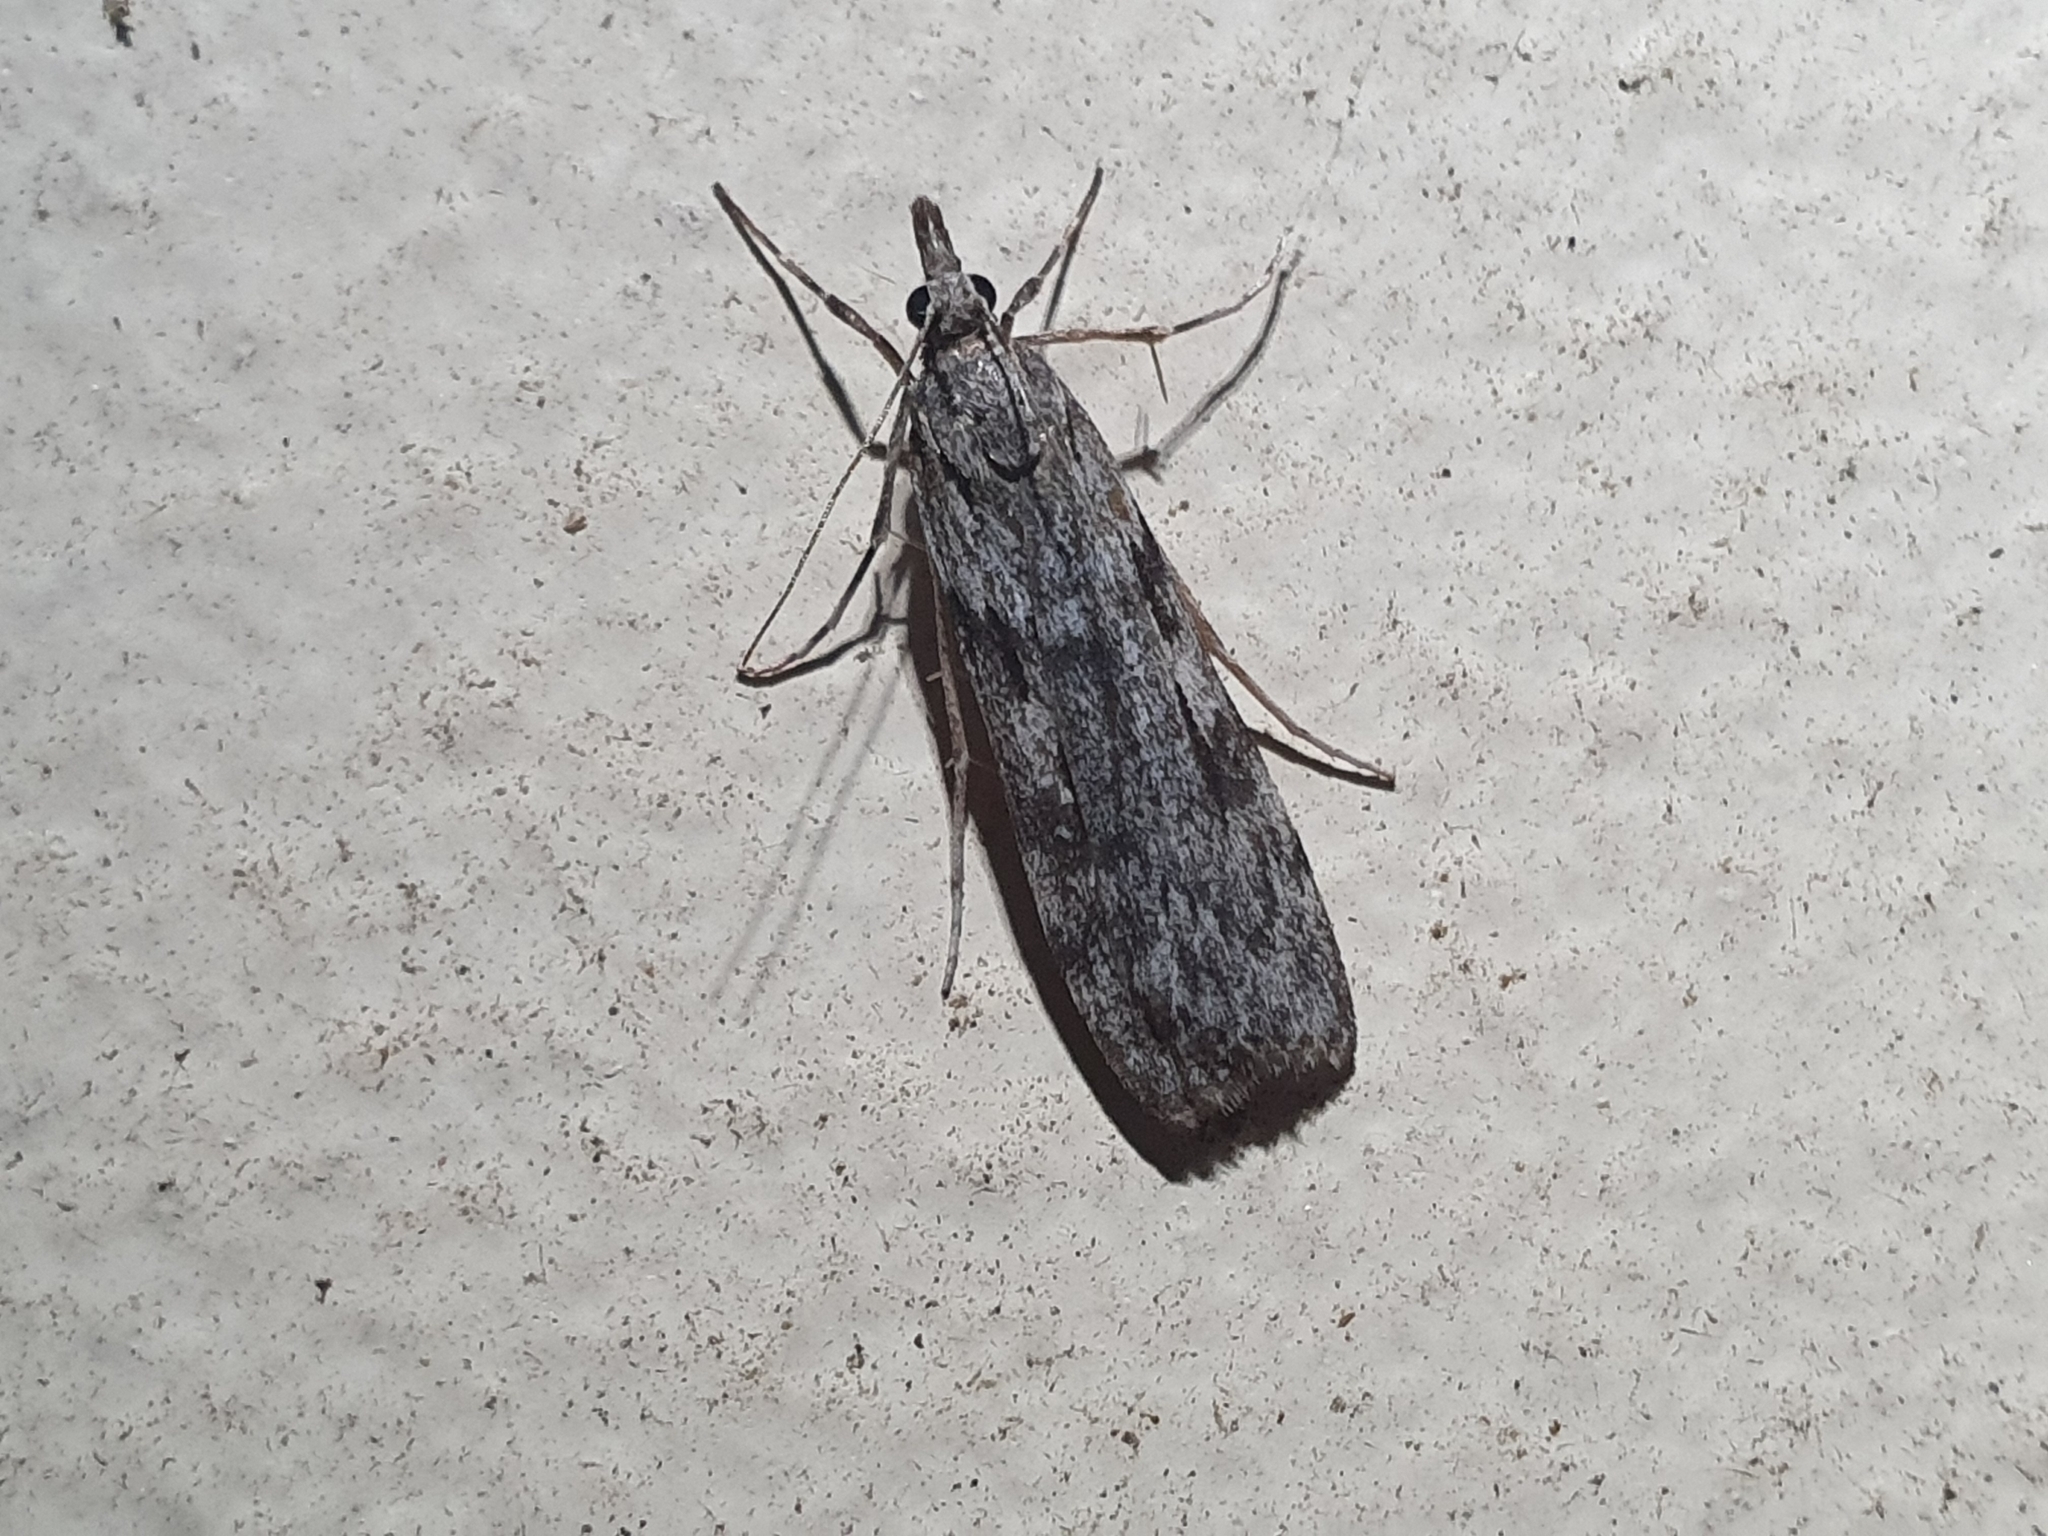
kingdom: Animalia
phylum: Arthropoda
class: Insecta
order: Lepidoptera
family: Crambidae
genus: Scoparia
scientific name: Scoparia halopis
